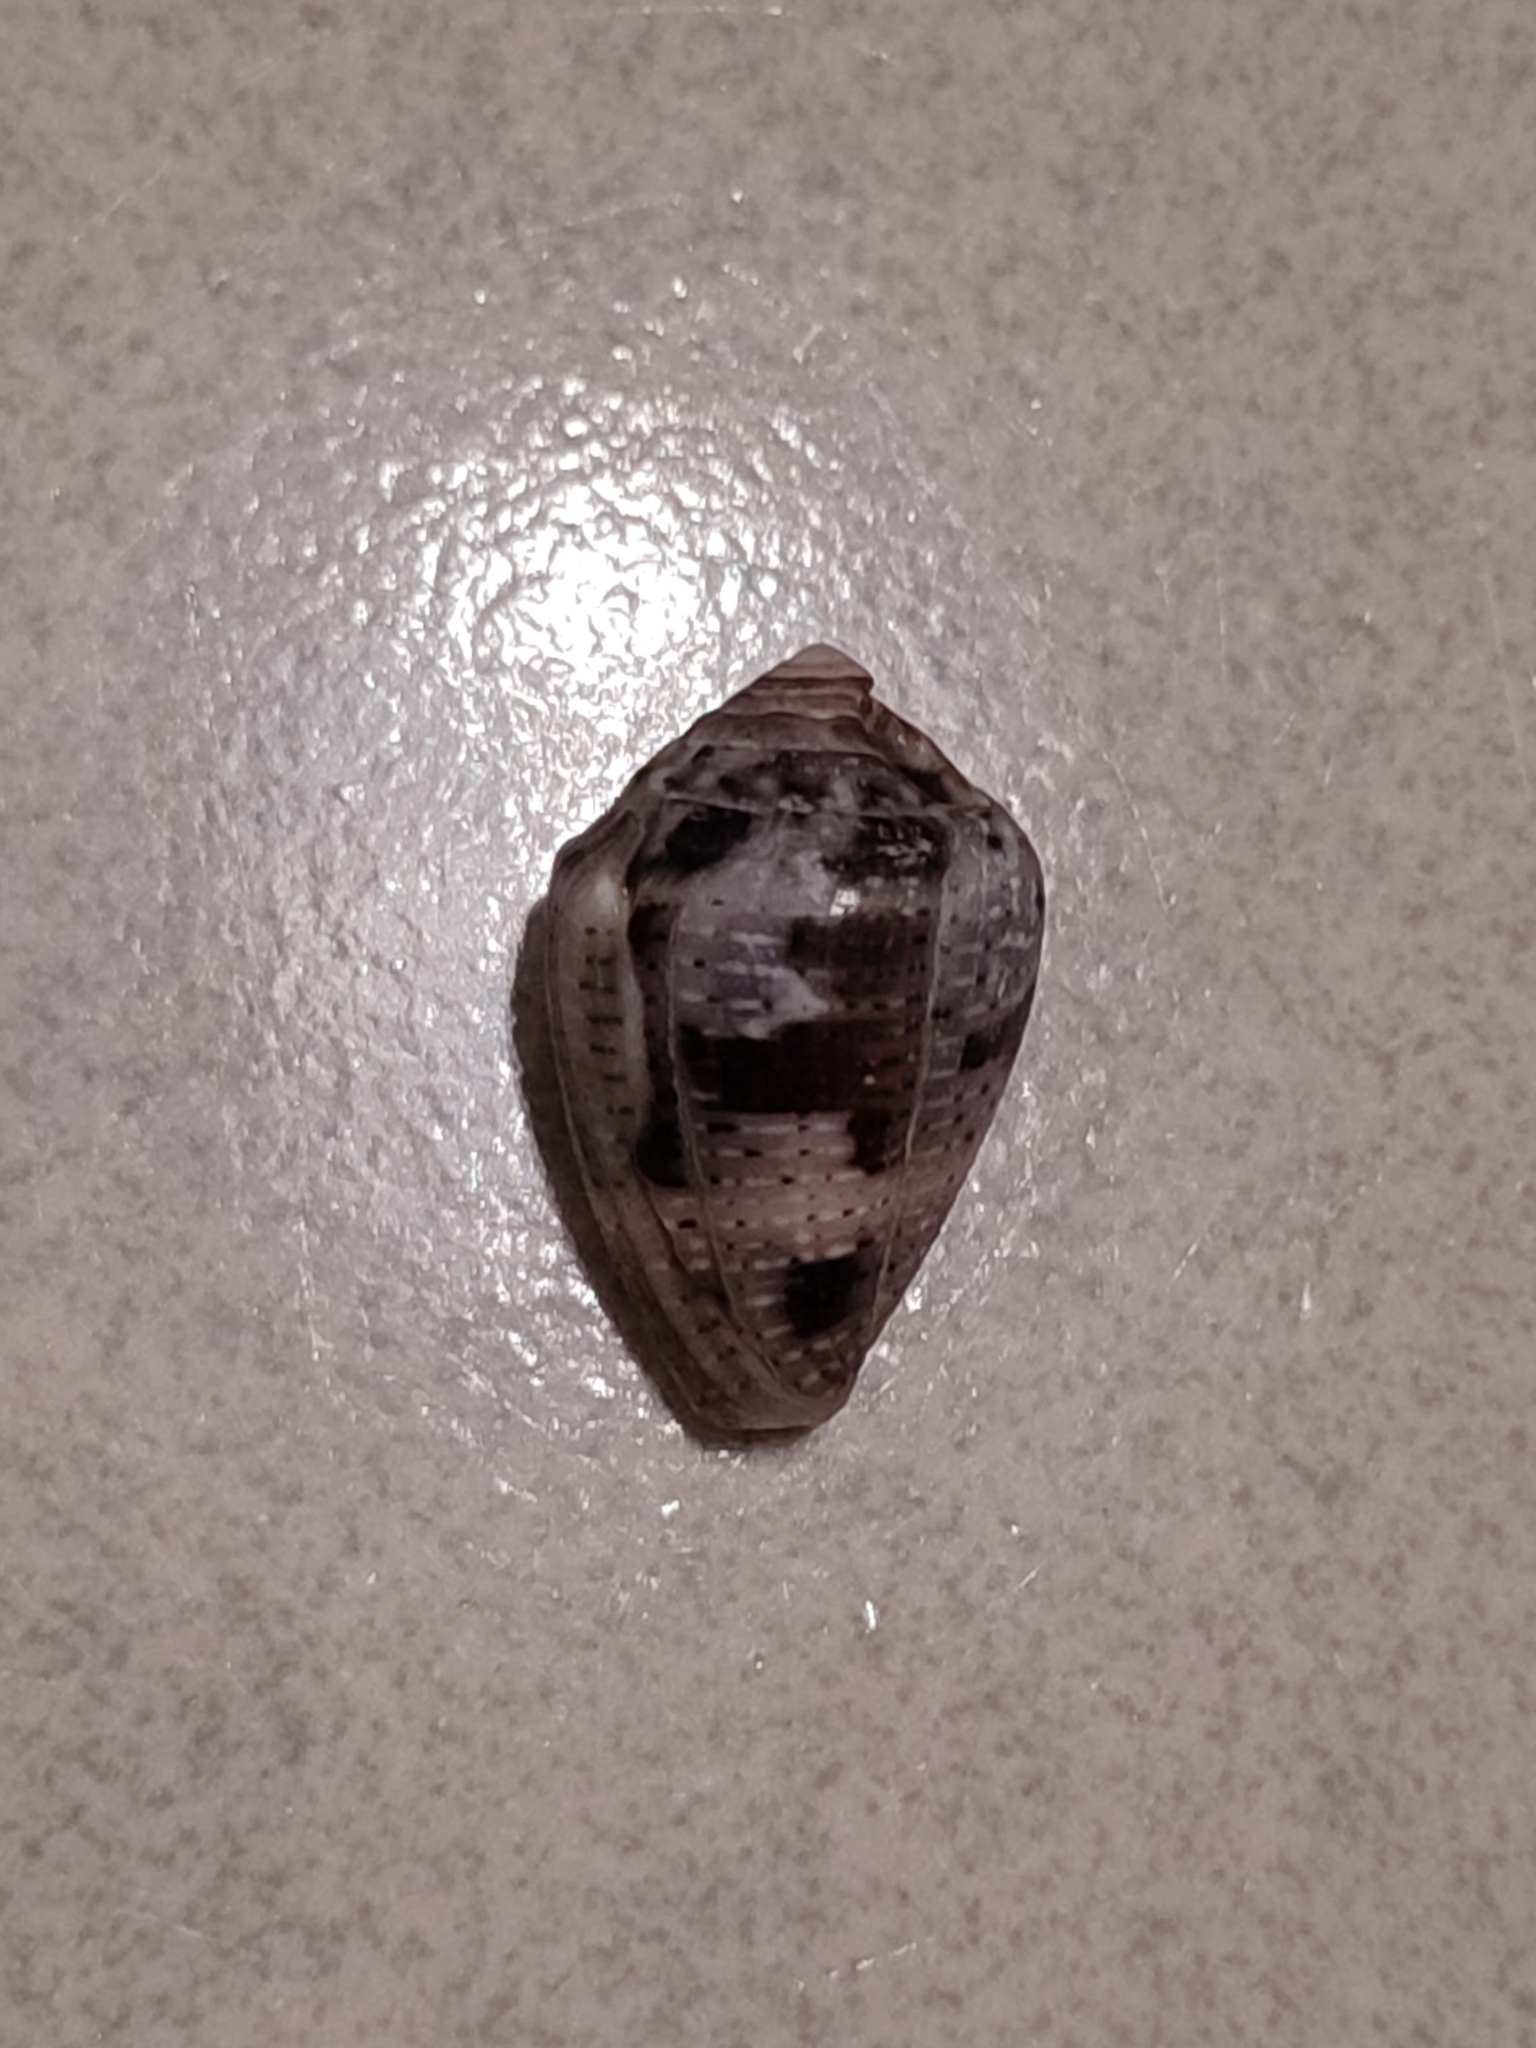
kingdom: Animalia
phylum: Mollusca
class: Gastropoda
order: Neogastropoda
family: Conidae
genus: Conus
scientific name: Conus coronatus
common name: Coronated cone
